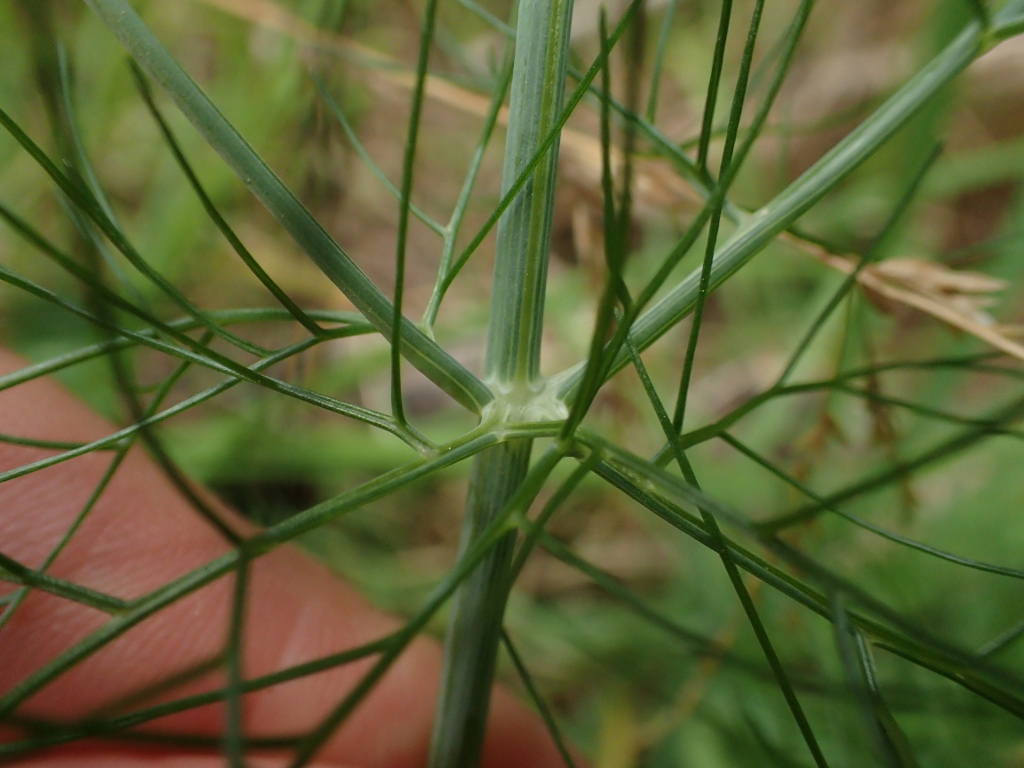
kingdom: Plantae
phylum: Tracheophyta
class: Magnoliopsida
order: Apiales
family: Apiaceae
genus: Foeniculum
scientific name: Foeniculum vulgare
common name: Fennel
